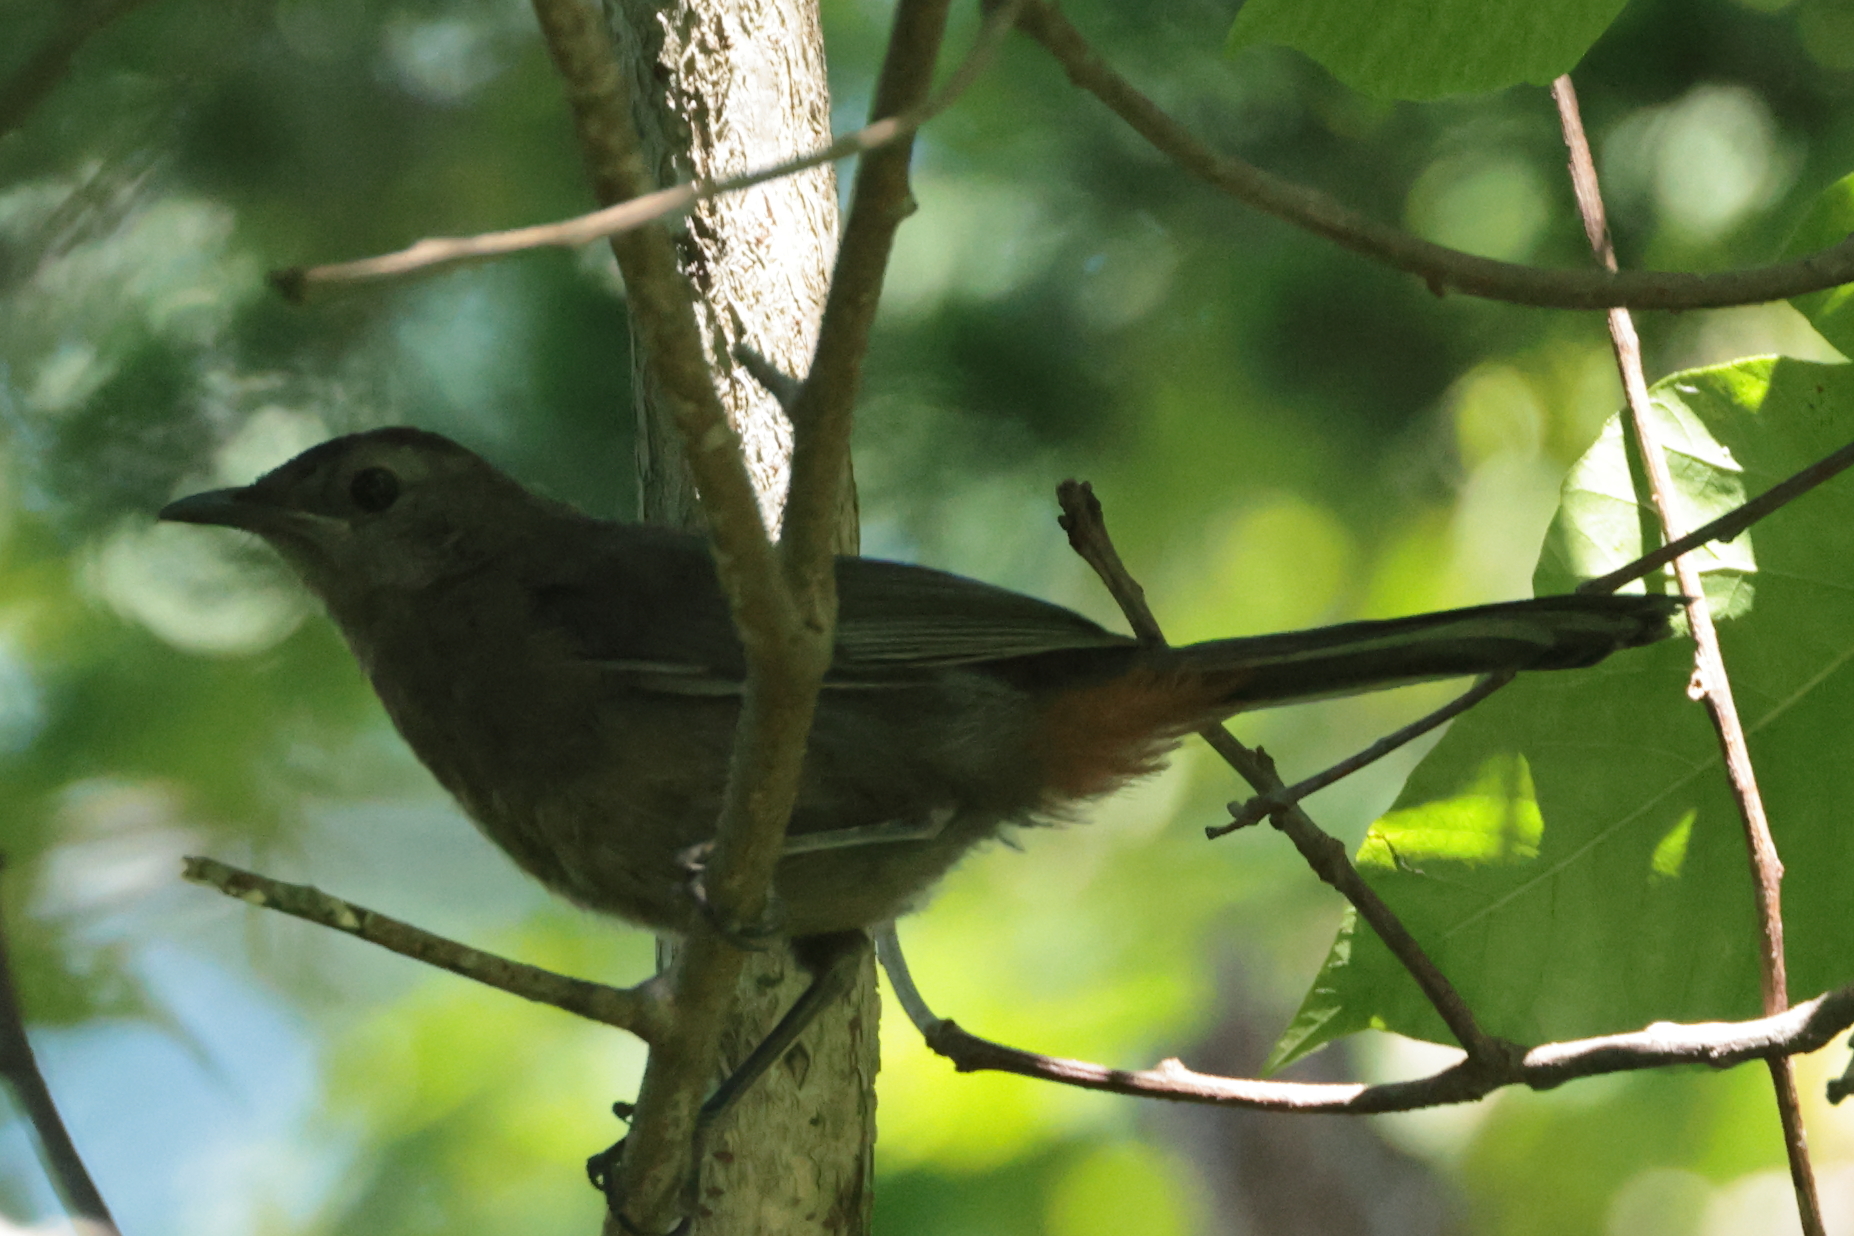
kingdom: Animalia
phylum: Chordata
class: Aves
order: Passeriformes
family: Mimidae
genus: Dumetella
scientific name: Dumetella carolinensis
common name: Gray catbird
